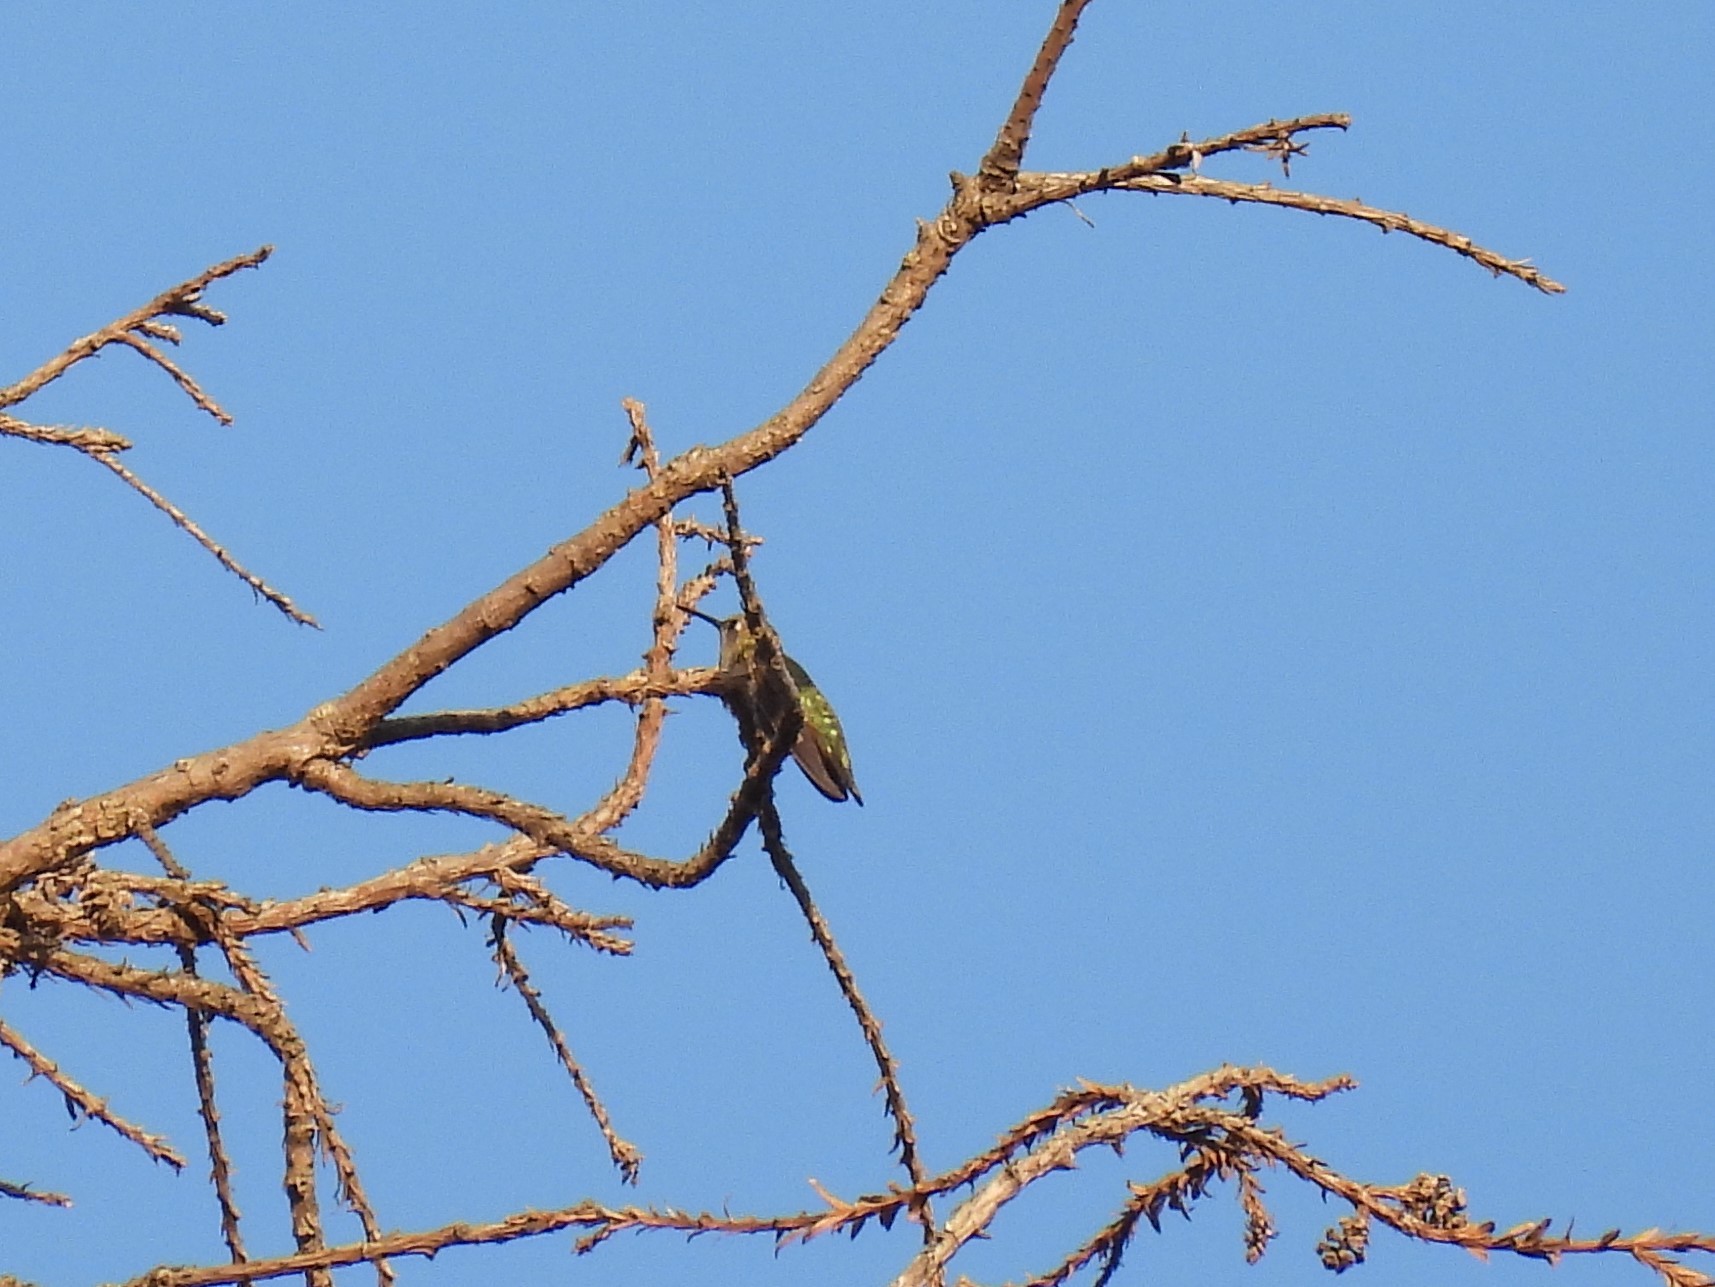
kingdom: Animalia
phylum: Chordata
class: Aves
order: Apodiformes
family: Trochilidae
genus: Calypte
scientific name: Calypte anna
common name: Anna's hummingbird
